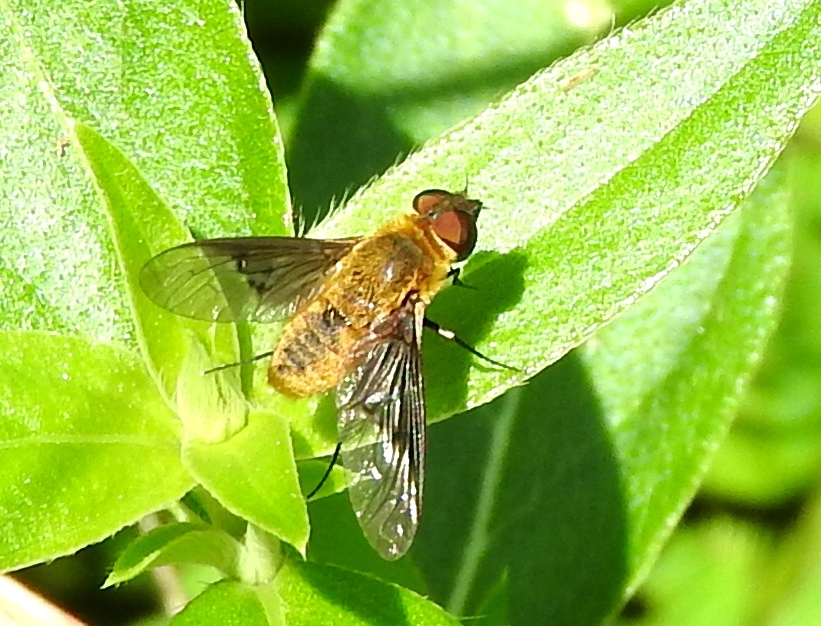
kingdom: Animalia
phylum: Arthropoda
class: Insecta
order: Diptera
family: Bombyliidae
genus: Chrysanthrax
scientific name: Chrysanthrax cypris
